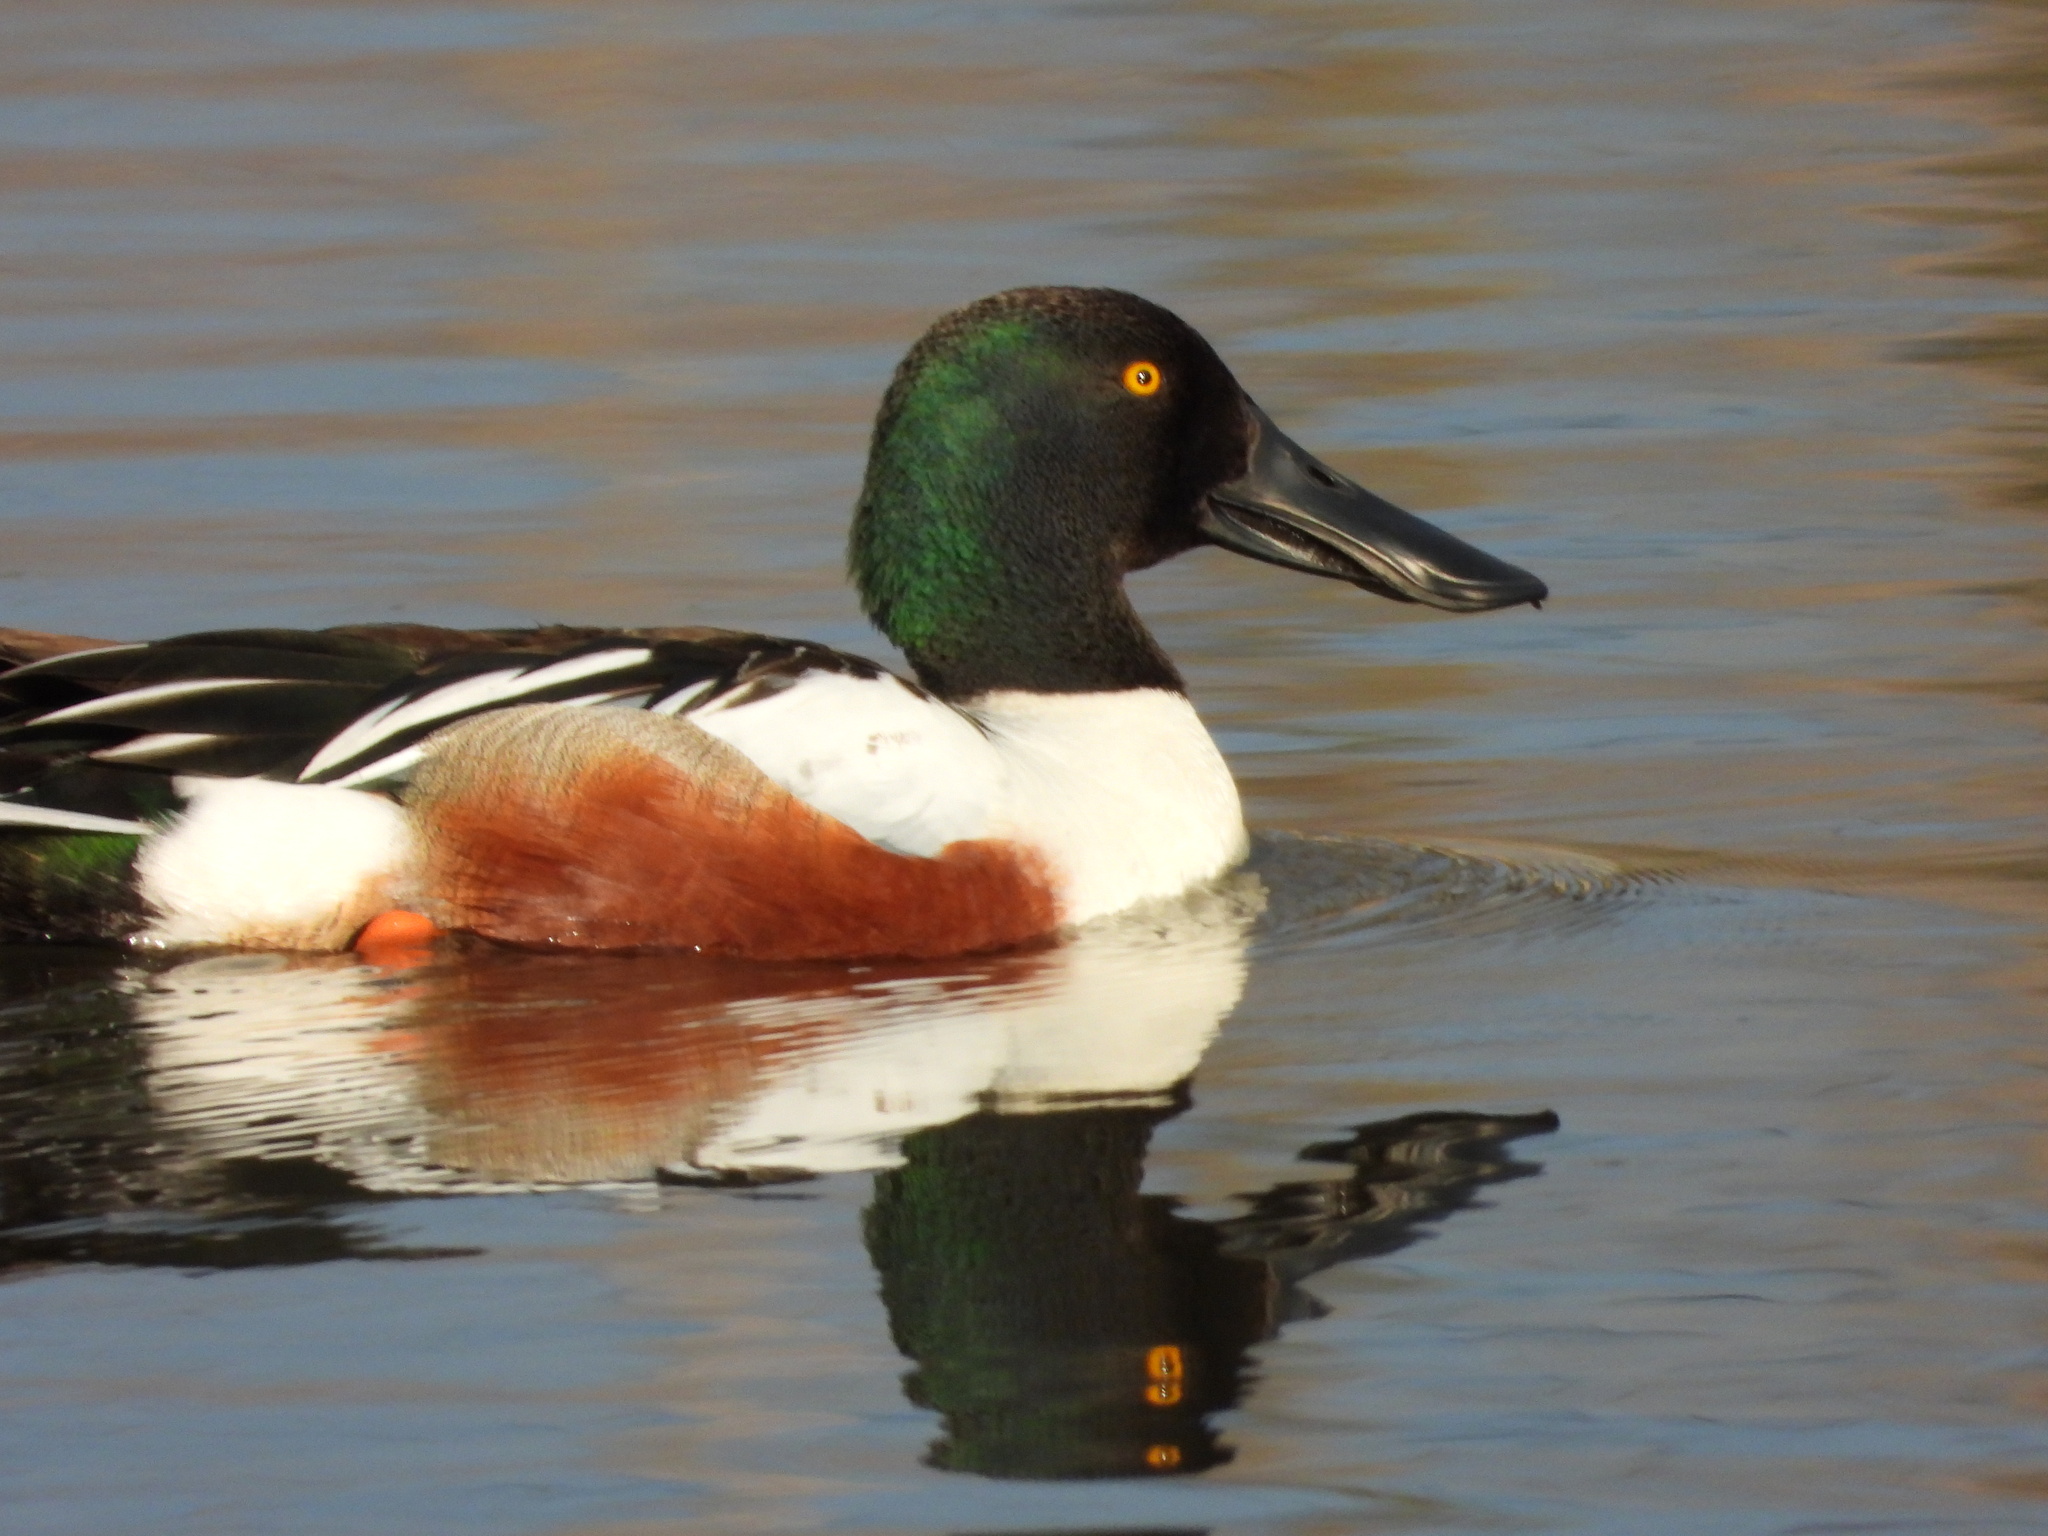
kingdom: Animalia
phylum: Chordata
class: Aves
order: Anseriformes
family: Anatidae
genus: Spatula
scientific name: Spatula clypeata
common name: Northern shoveler
